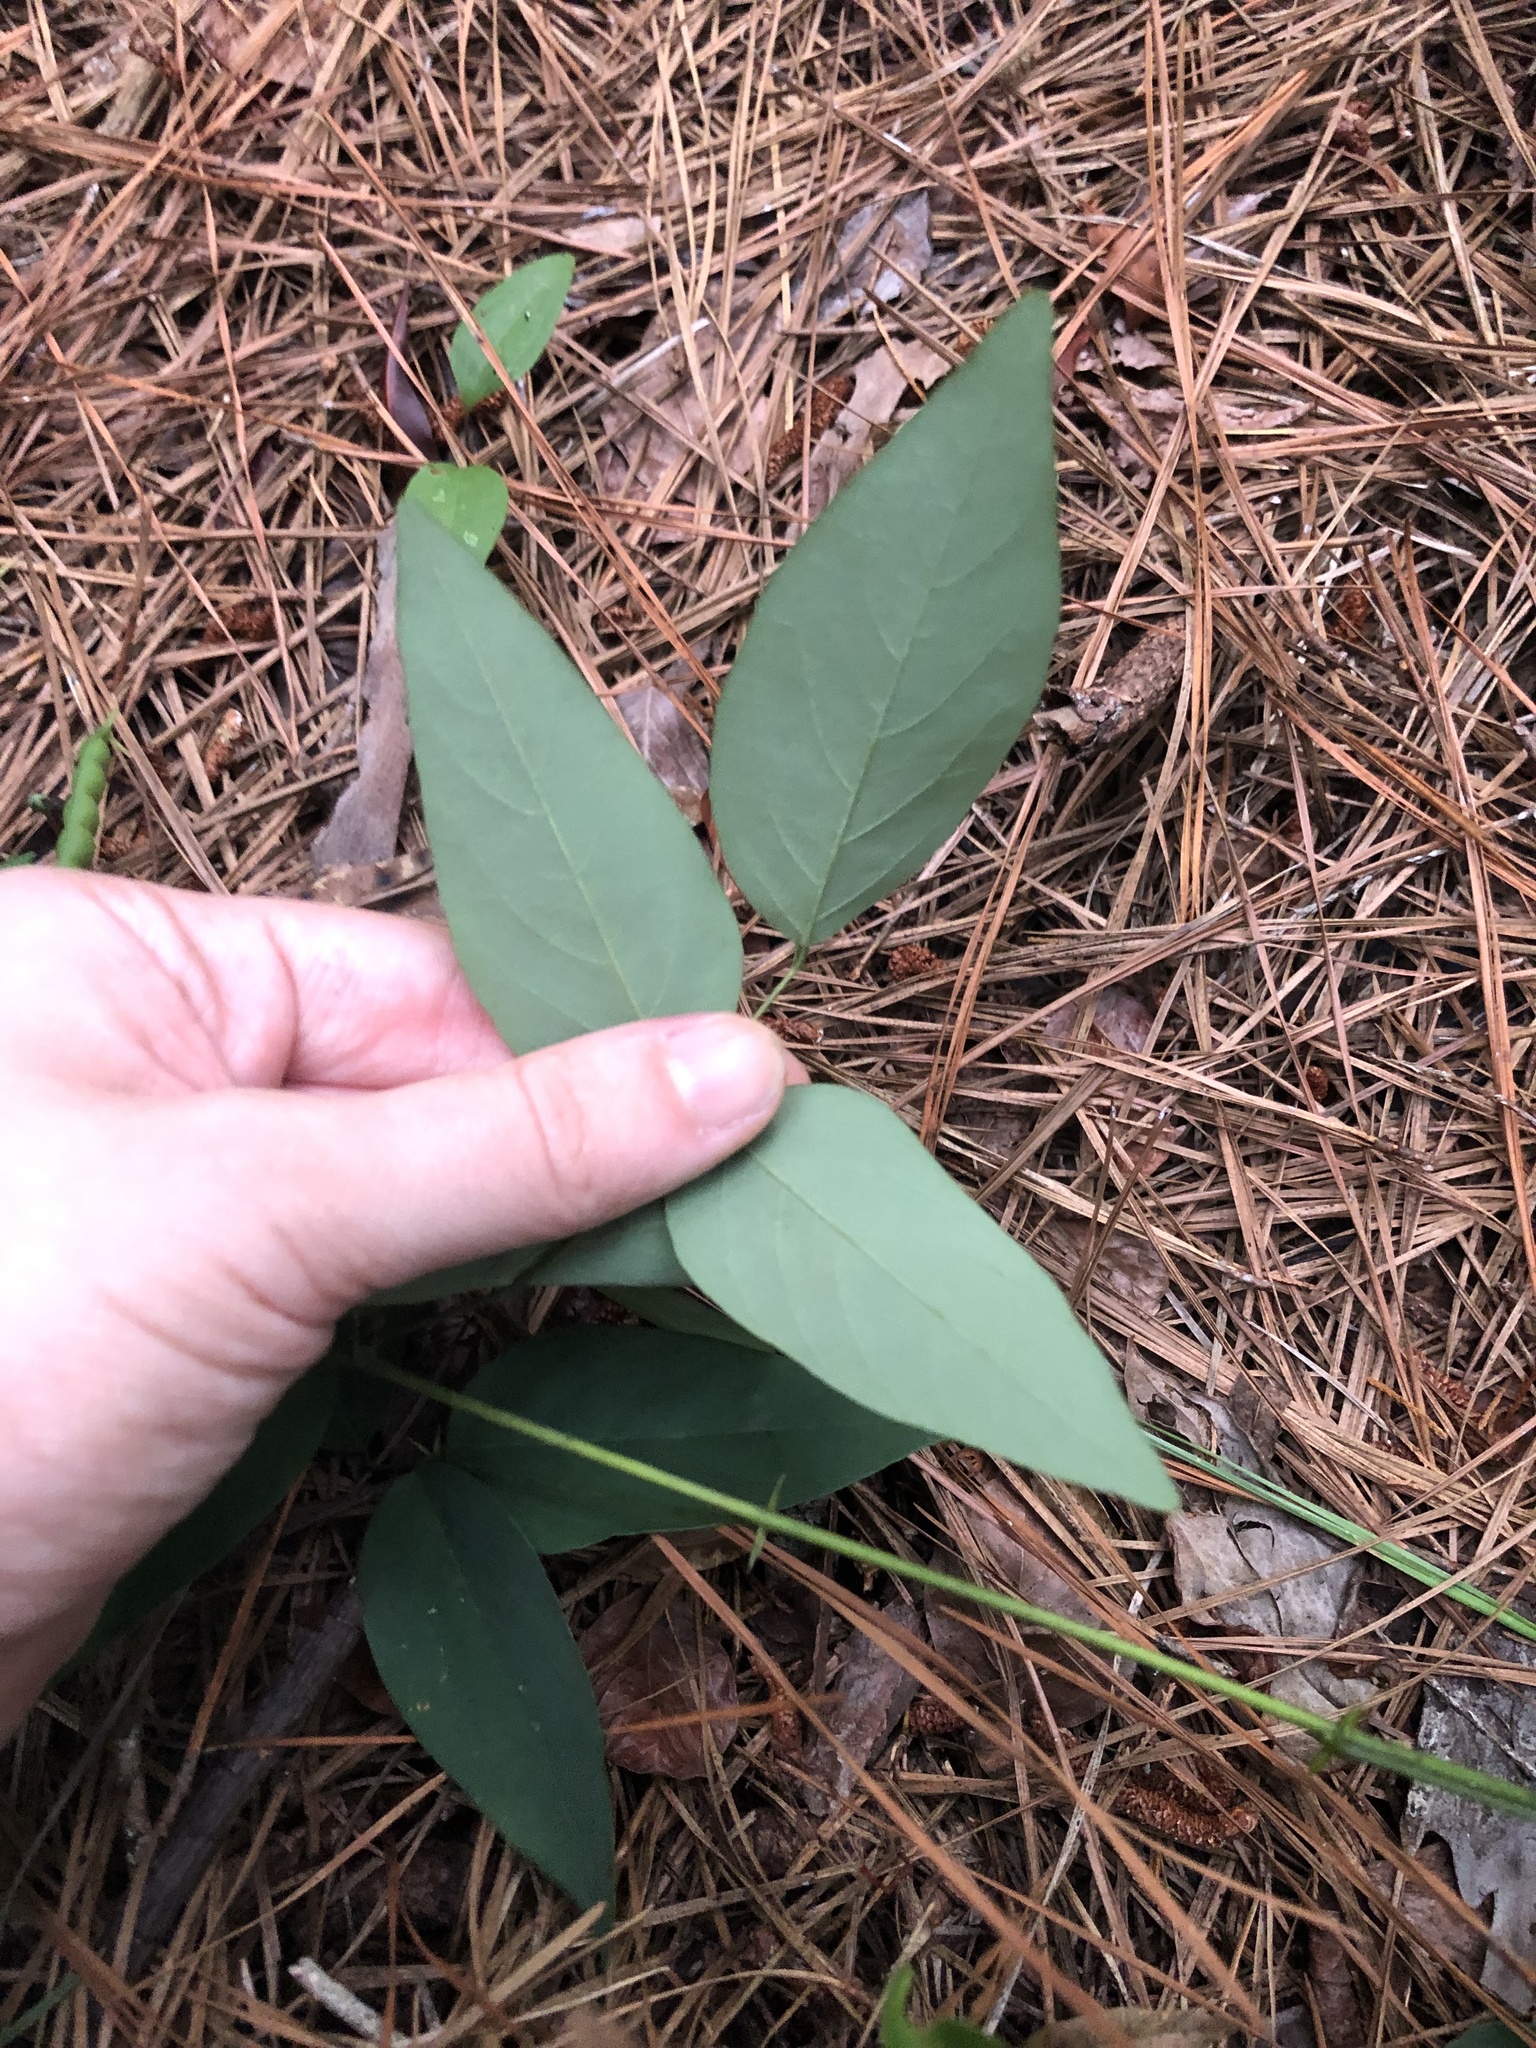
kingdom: Plantae
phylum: Tracheophyta
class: Magnoliopsida
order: Fabales
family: Fabaceae
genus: Clitoria
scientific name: Clitoria mariana
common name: Butterfly-pea
